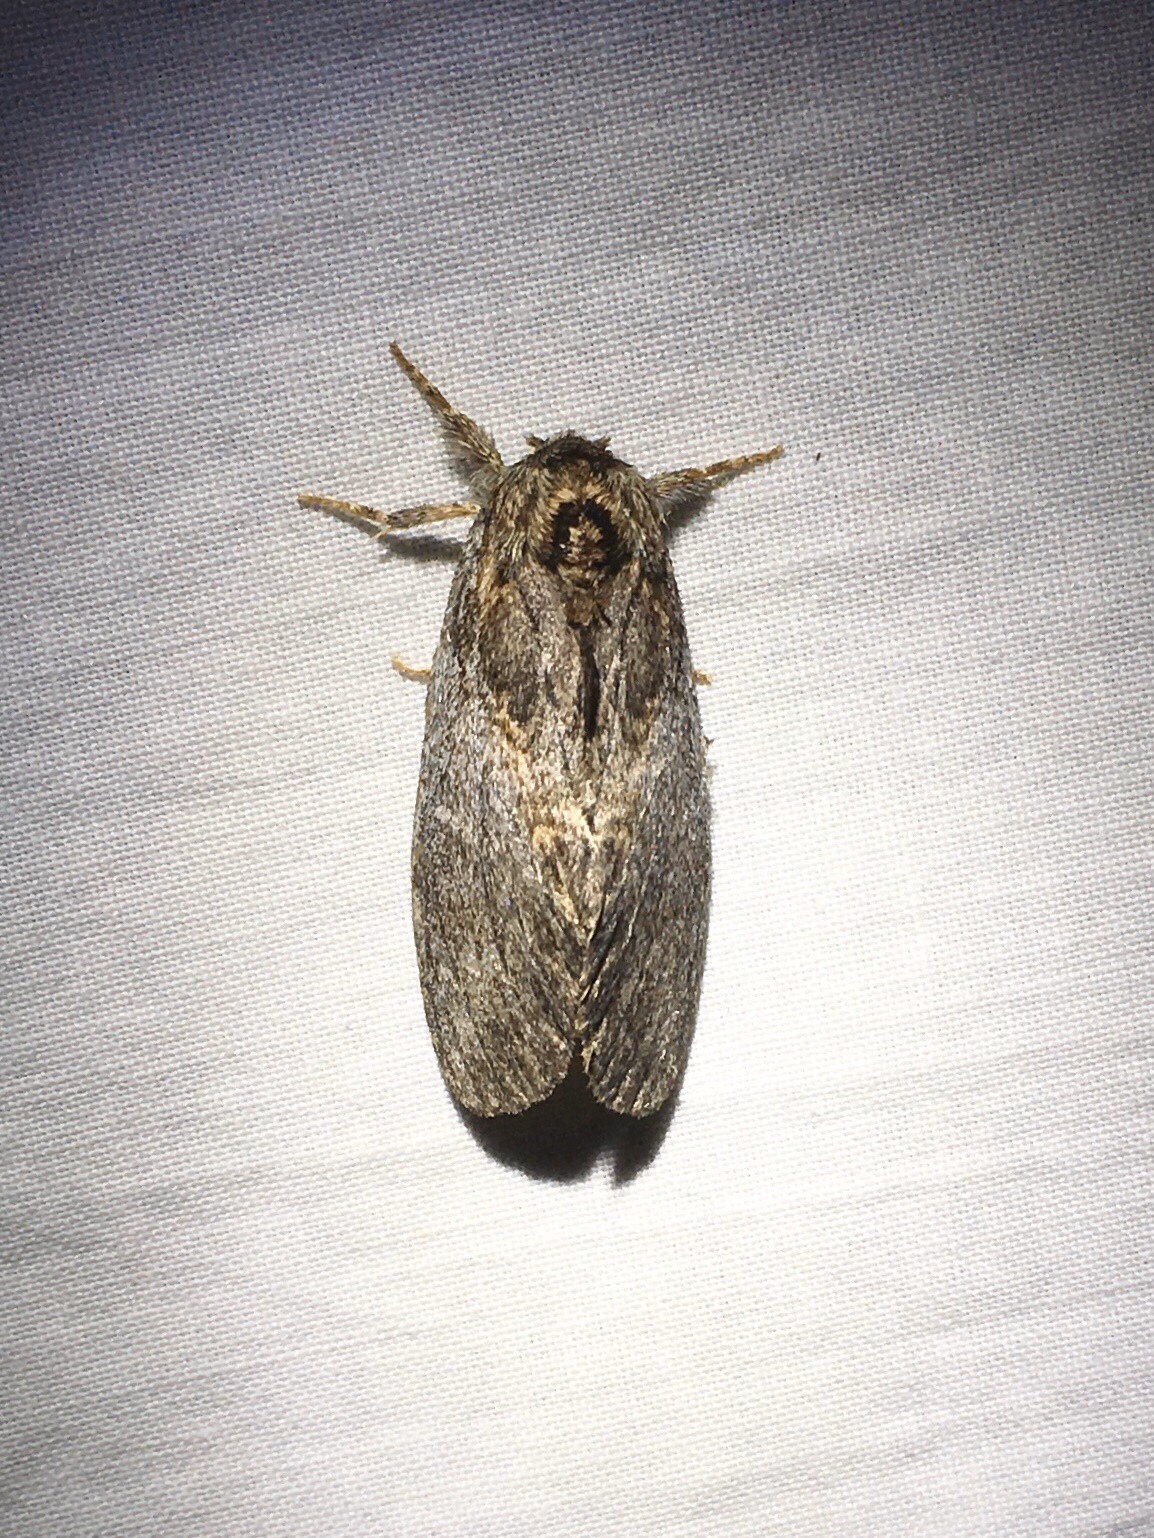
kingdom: Animalia
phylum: Arthropoda
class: Insecta
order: Lepidoptera
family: Notodontidae
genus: Peridea
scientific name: Peridea basitriens
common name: Oval-based prominent
